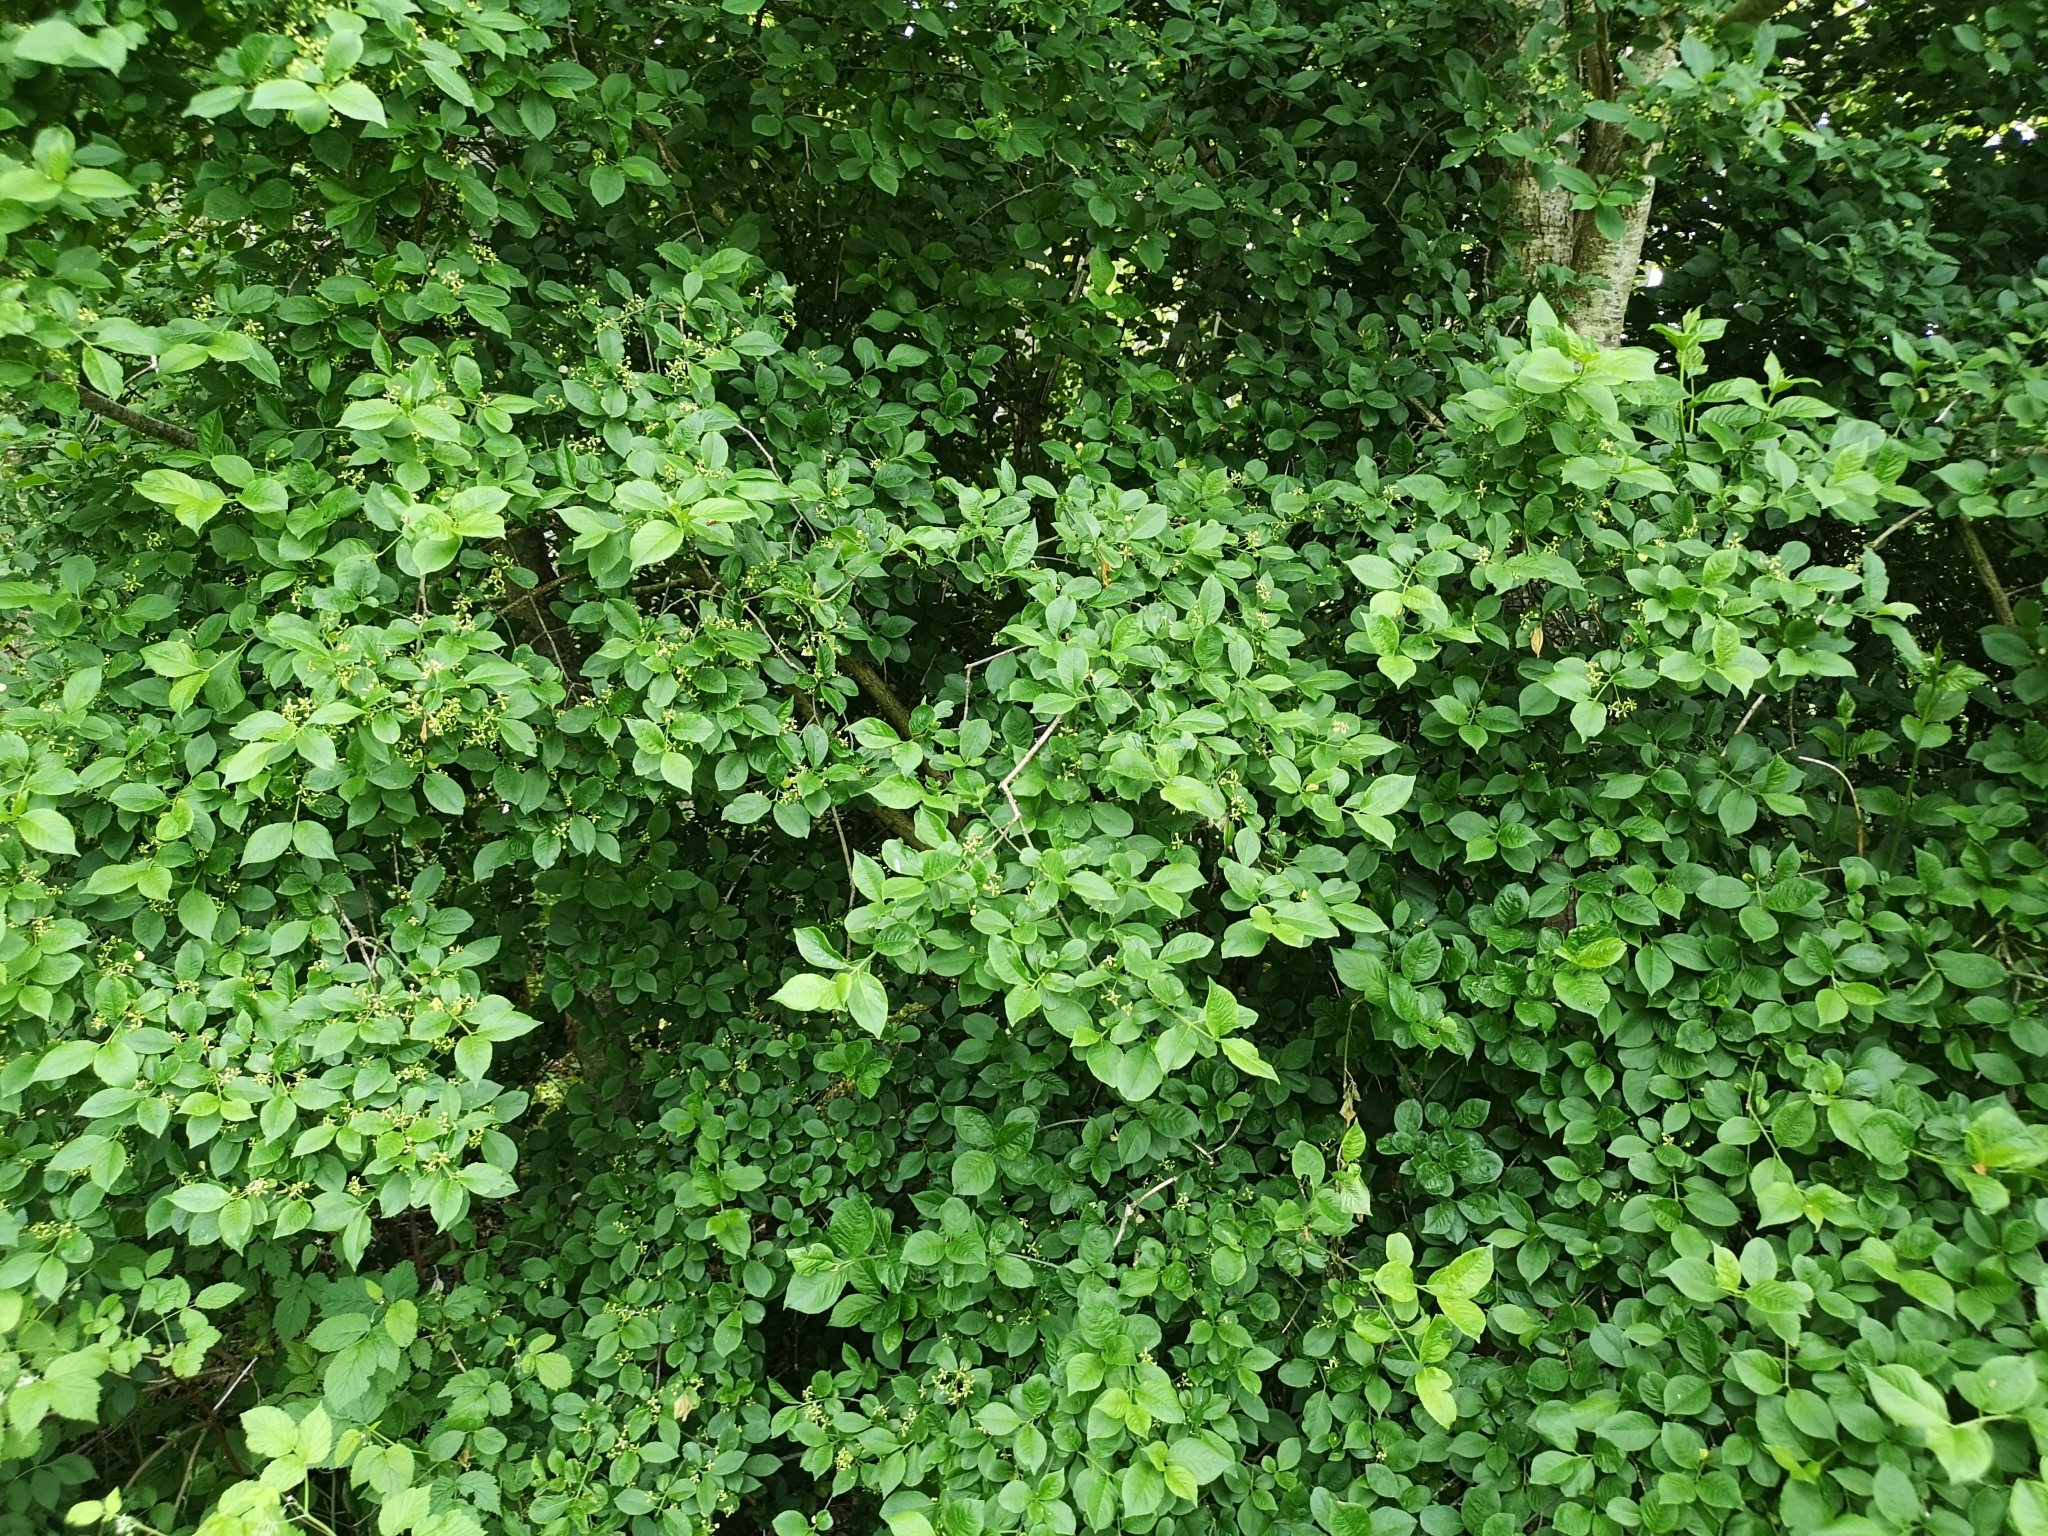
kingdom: Plantae
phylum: Tracheophyta
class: Magnoliopsida
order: Celastrales
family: Celastraceae
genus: Euonymus
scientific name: Euonymus europaeus
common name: Spindle
